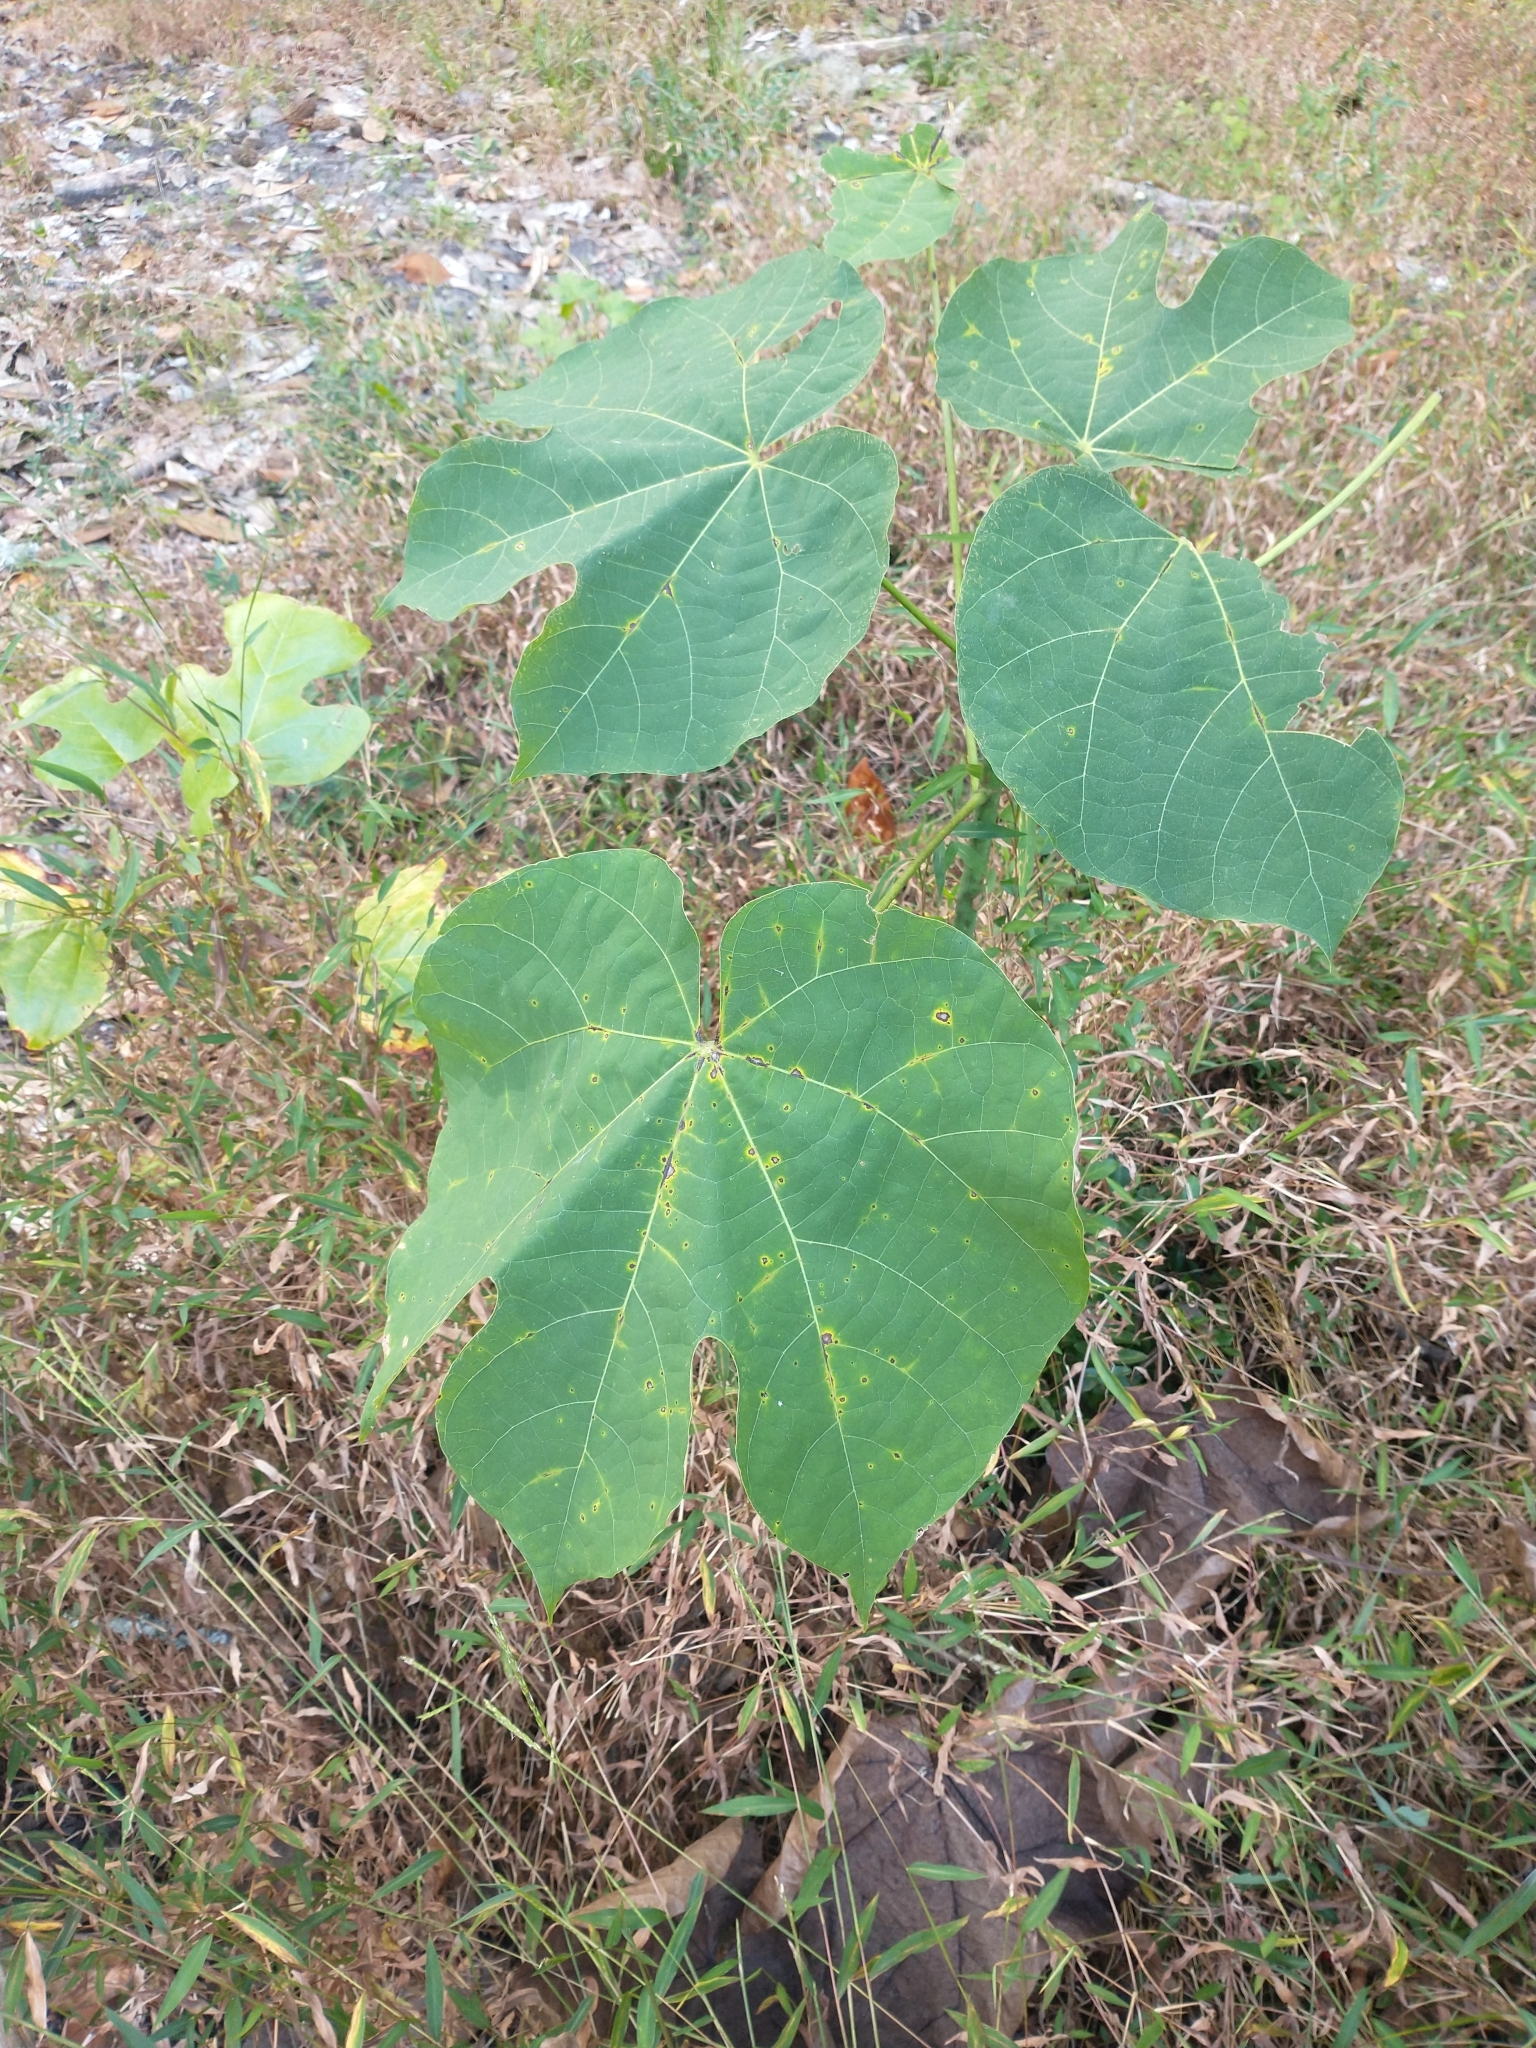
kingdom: Plantae
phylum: Tracheophyta
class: Magnoliopsida
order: Malvales
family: Malvaceae
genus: Firmiana
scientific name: Firmiana simplex
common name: Chinese parasoltree
